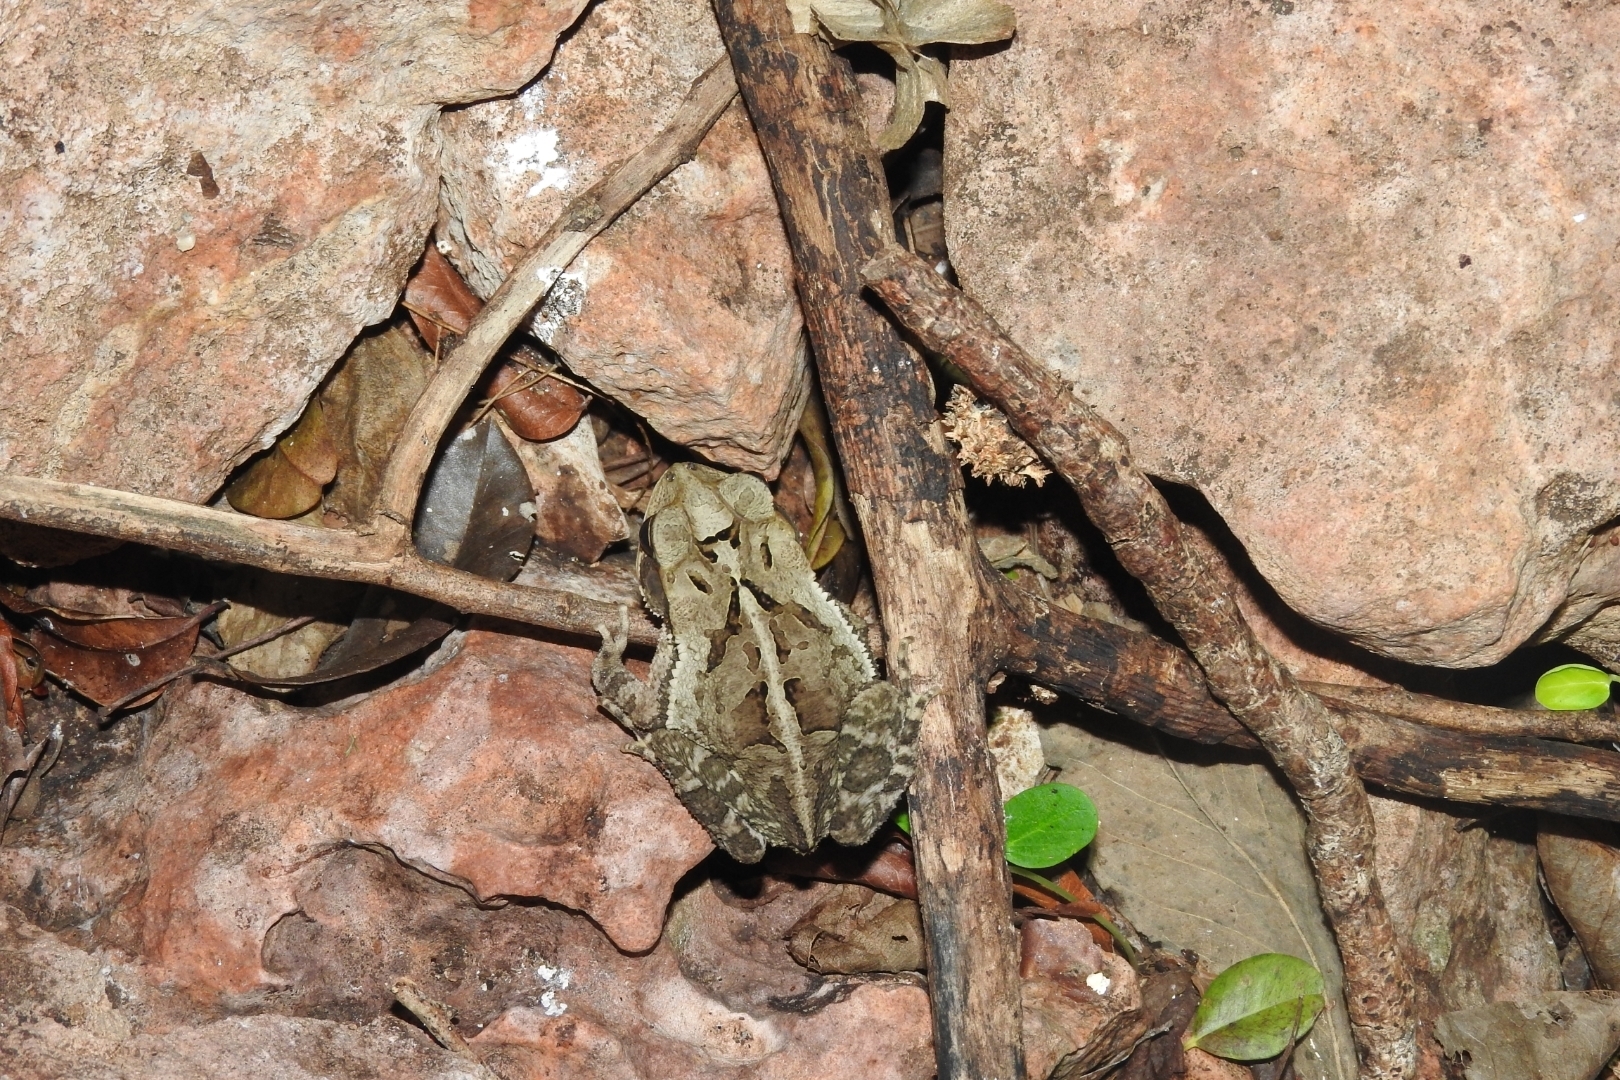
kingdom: Animalia
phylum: Chordata
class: Amphibia
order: Anura
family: Bufonidae
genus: Incilius
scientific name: Incilius valliceps
